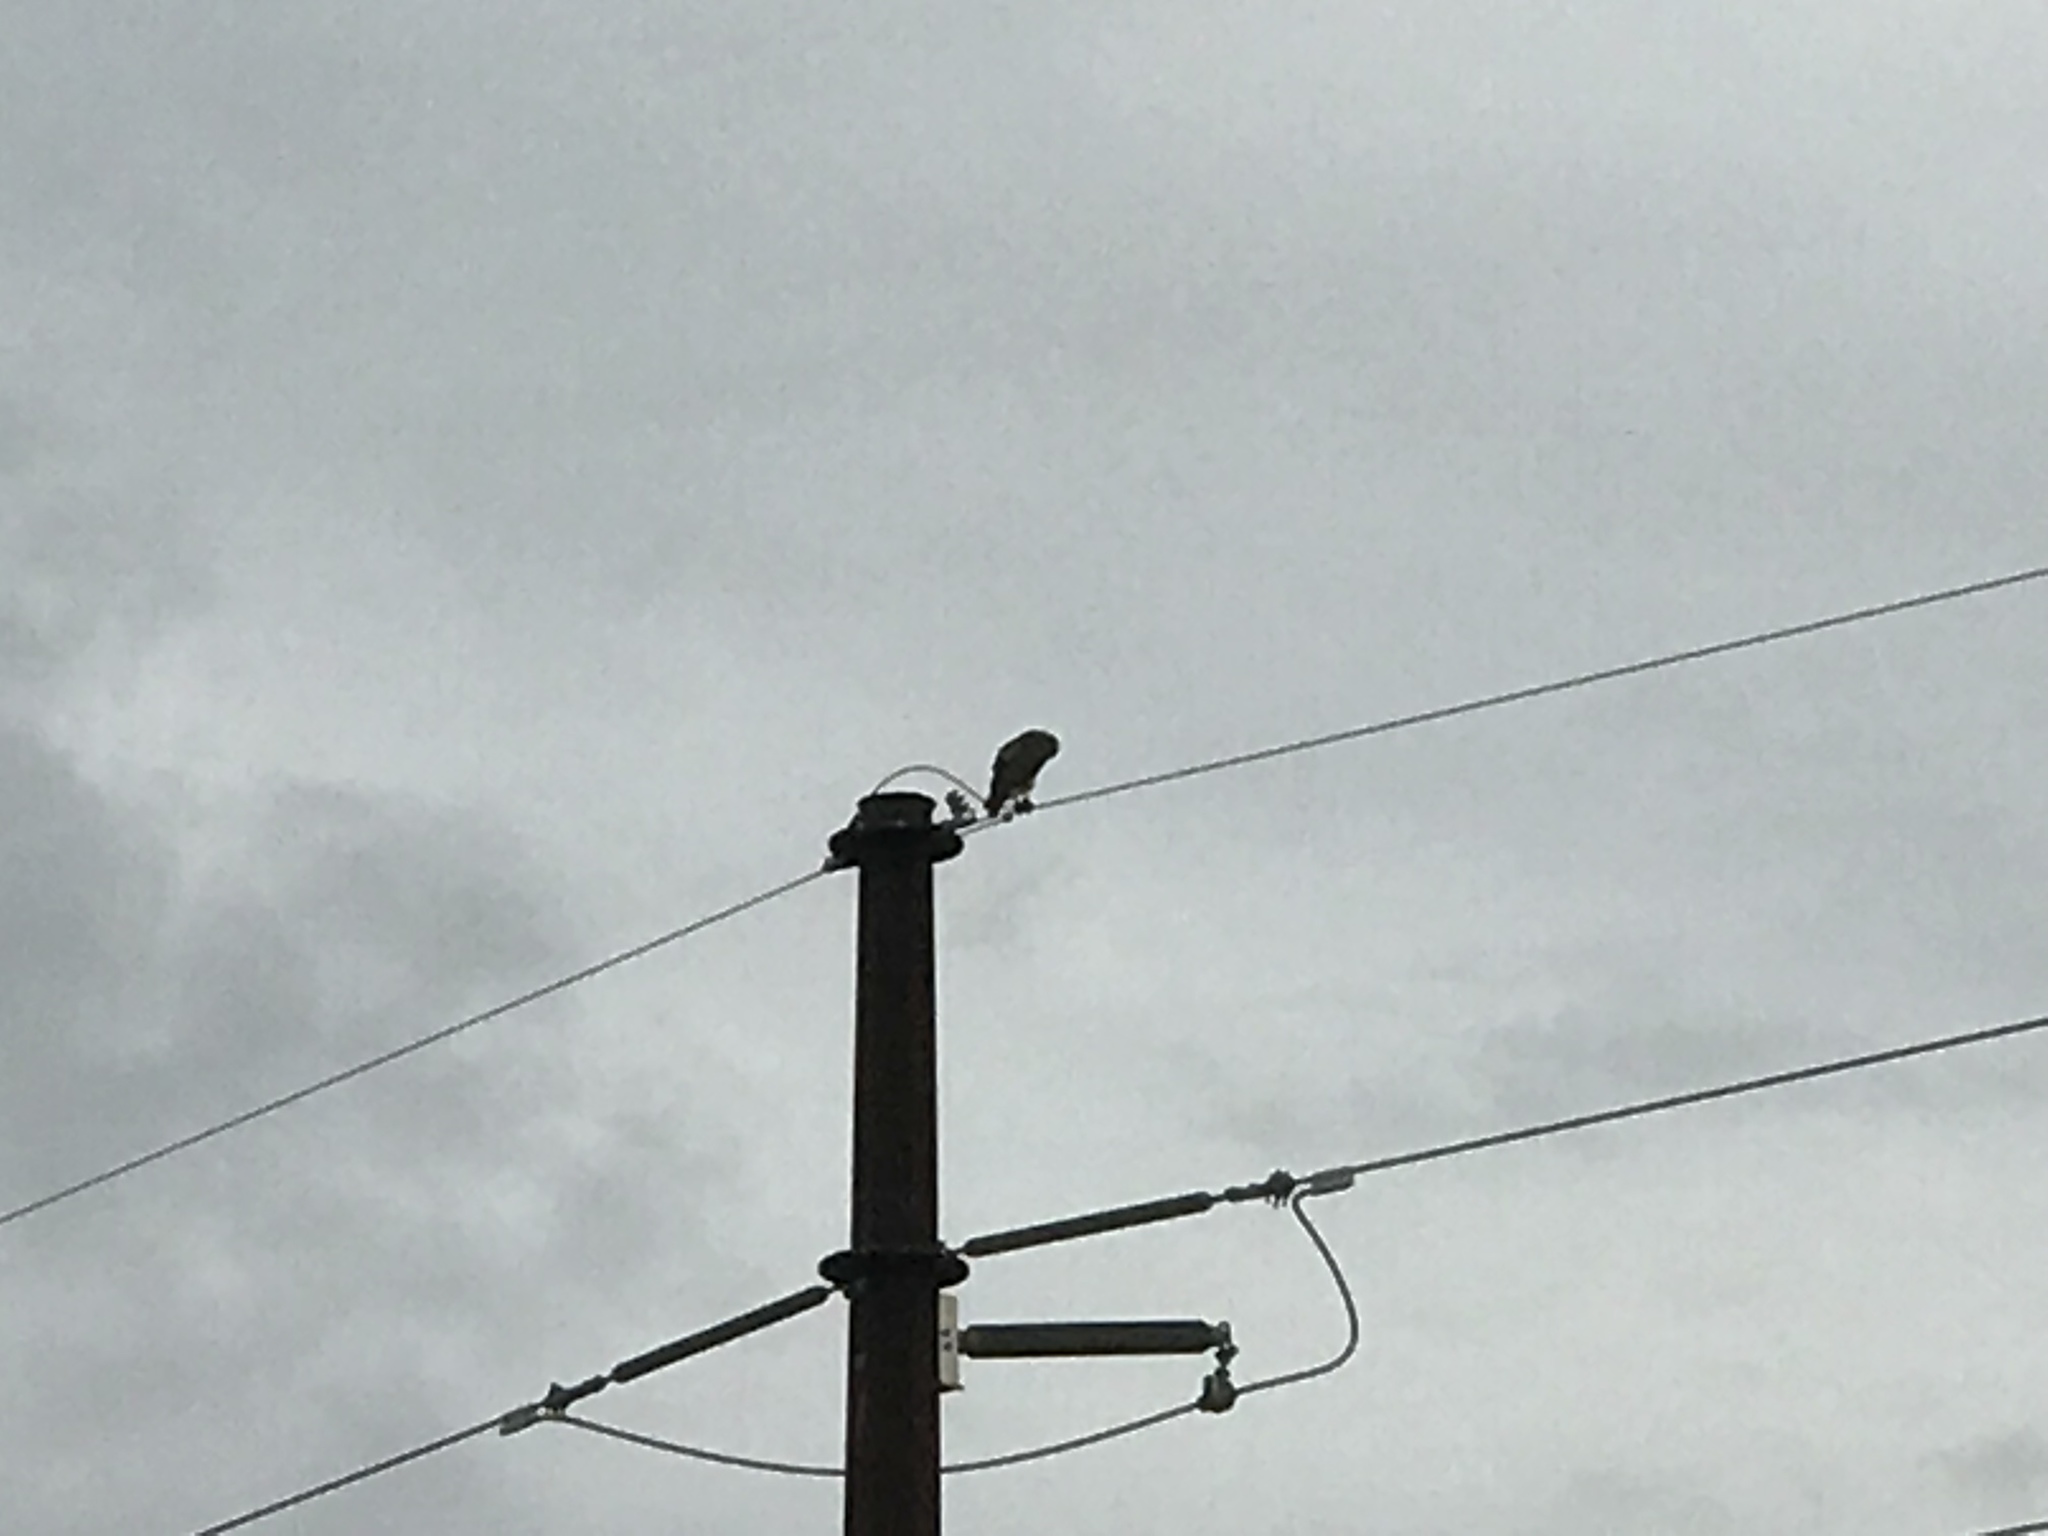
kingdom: Animalia
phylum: Chordata
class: Aves
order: Accipitriformes
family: Accipitridae
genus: Buteo
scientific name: Buteo jamaicensis
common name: Red-tailed hawk
